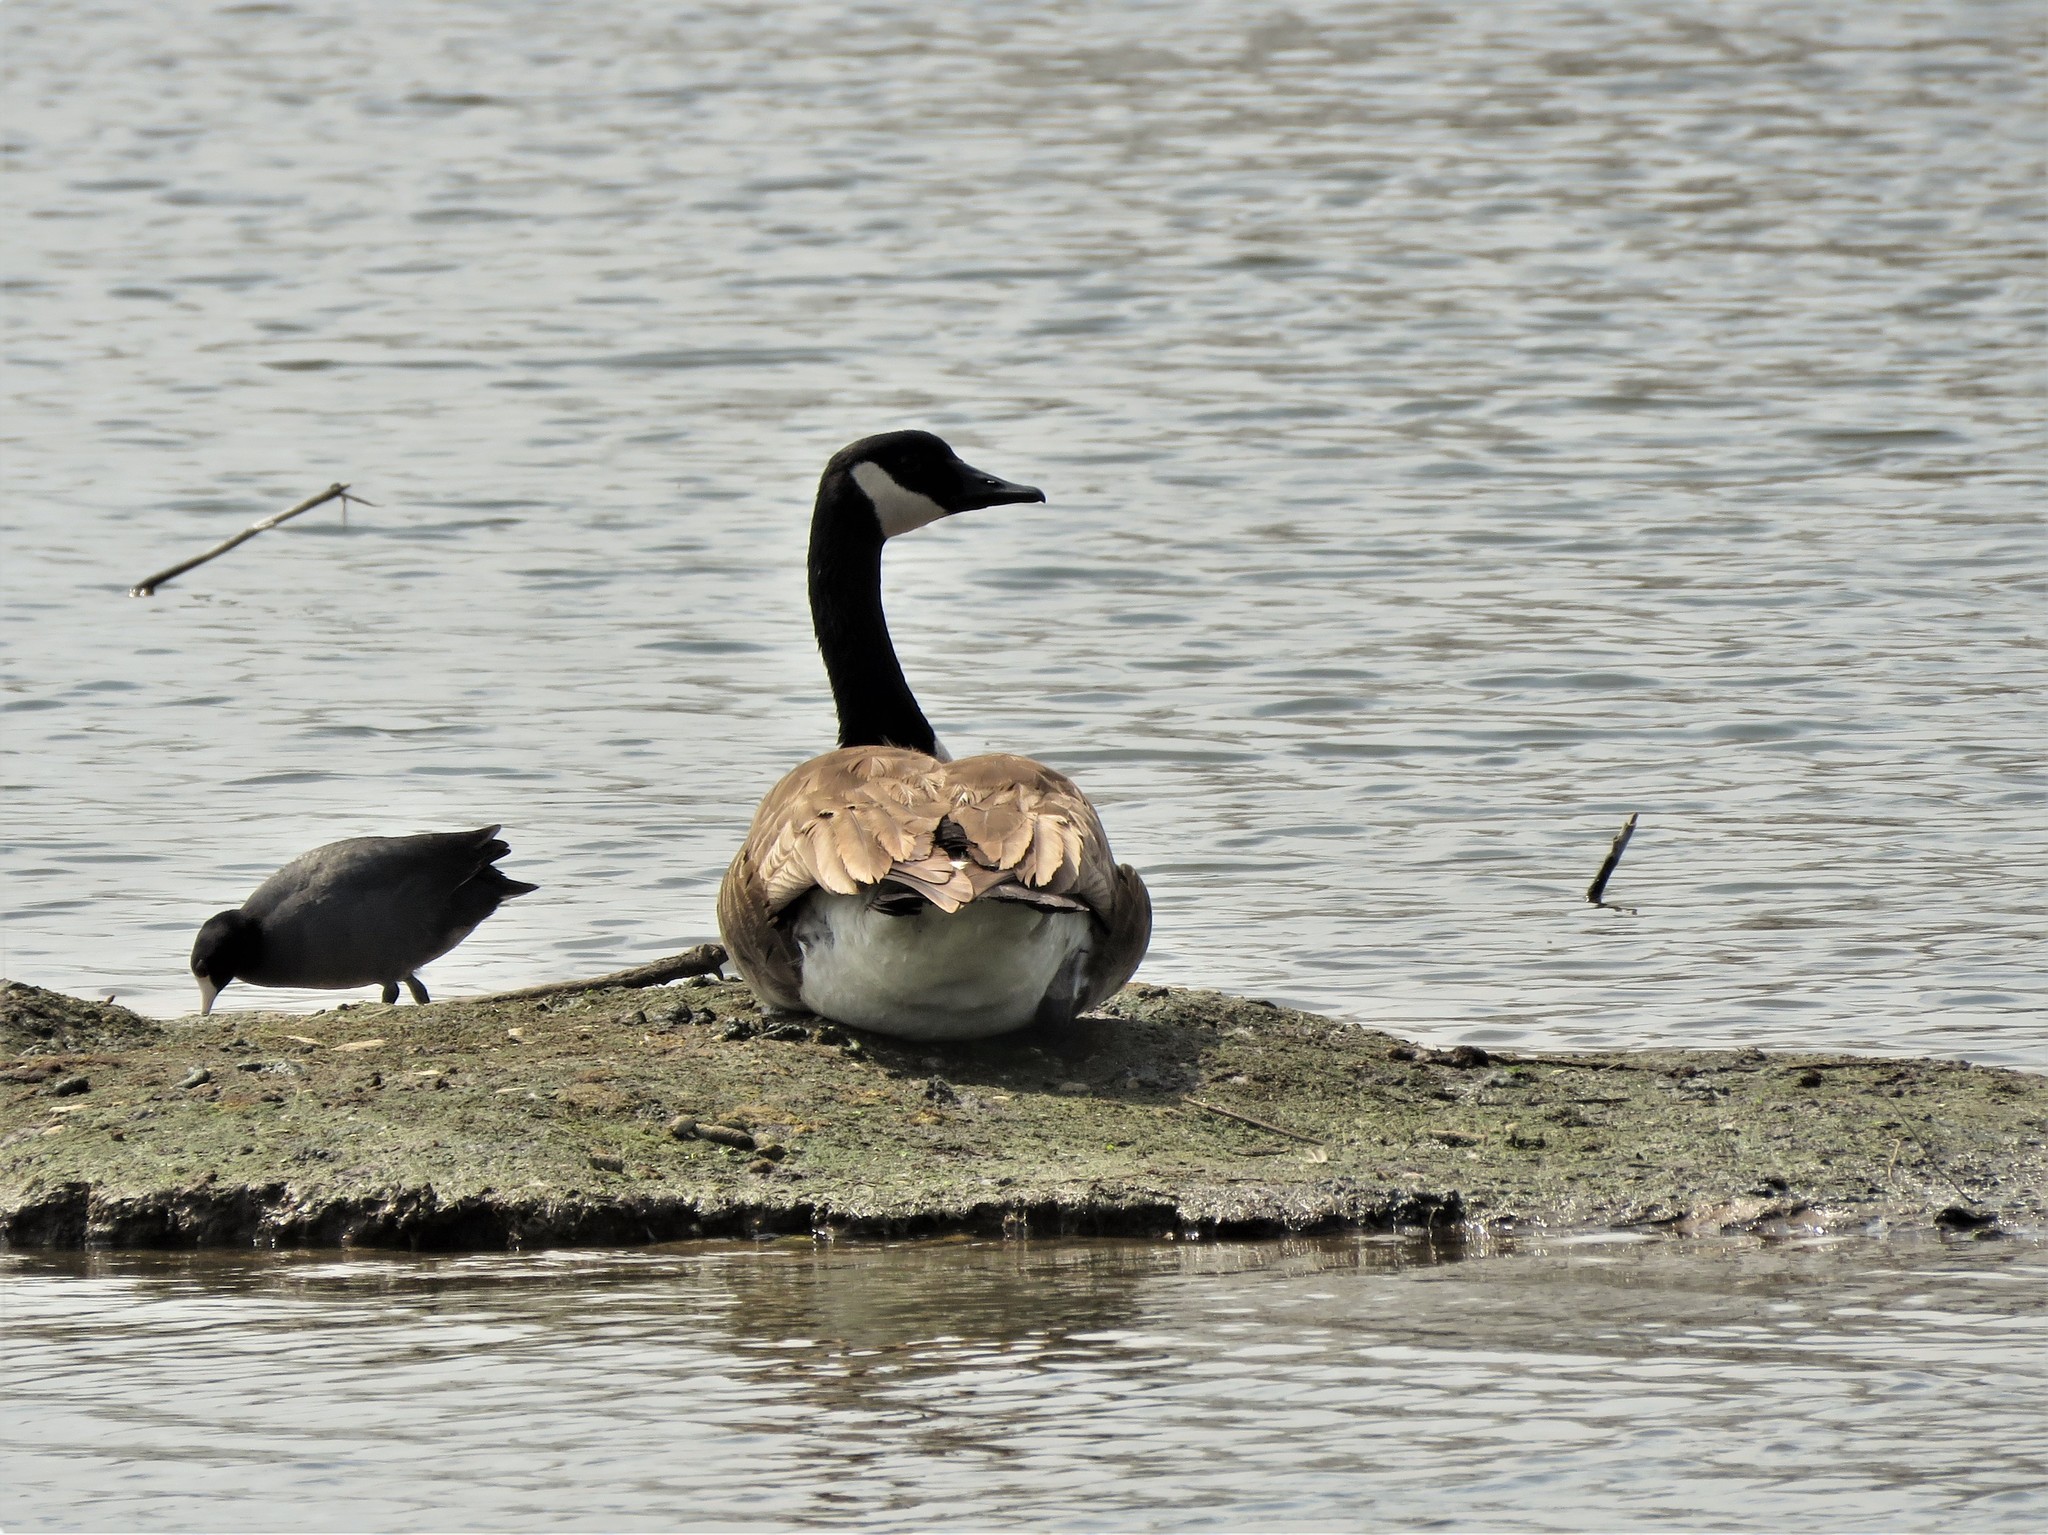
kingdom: Animalia
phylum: Chordata
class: Aves
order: Anseriformes
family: Anatidae
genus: Branta
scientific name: Branta canadensis
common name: Canada goose
